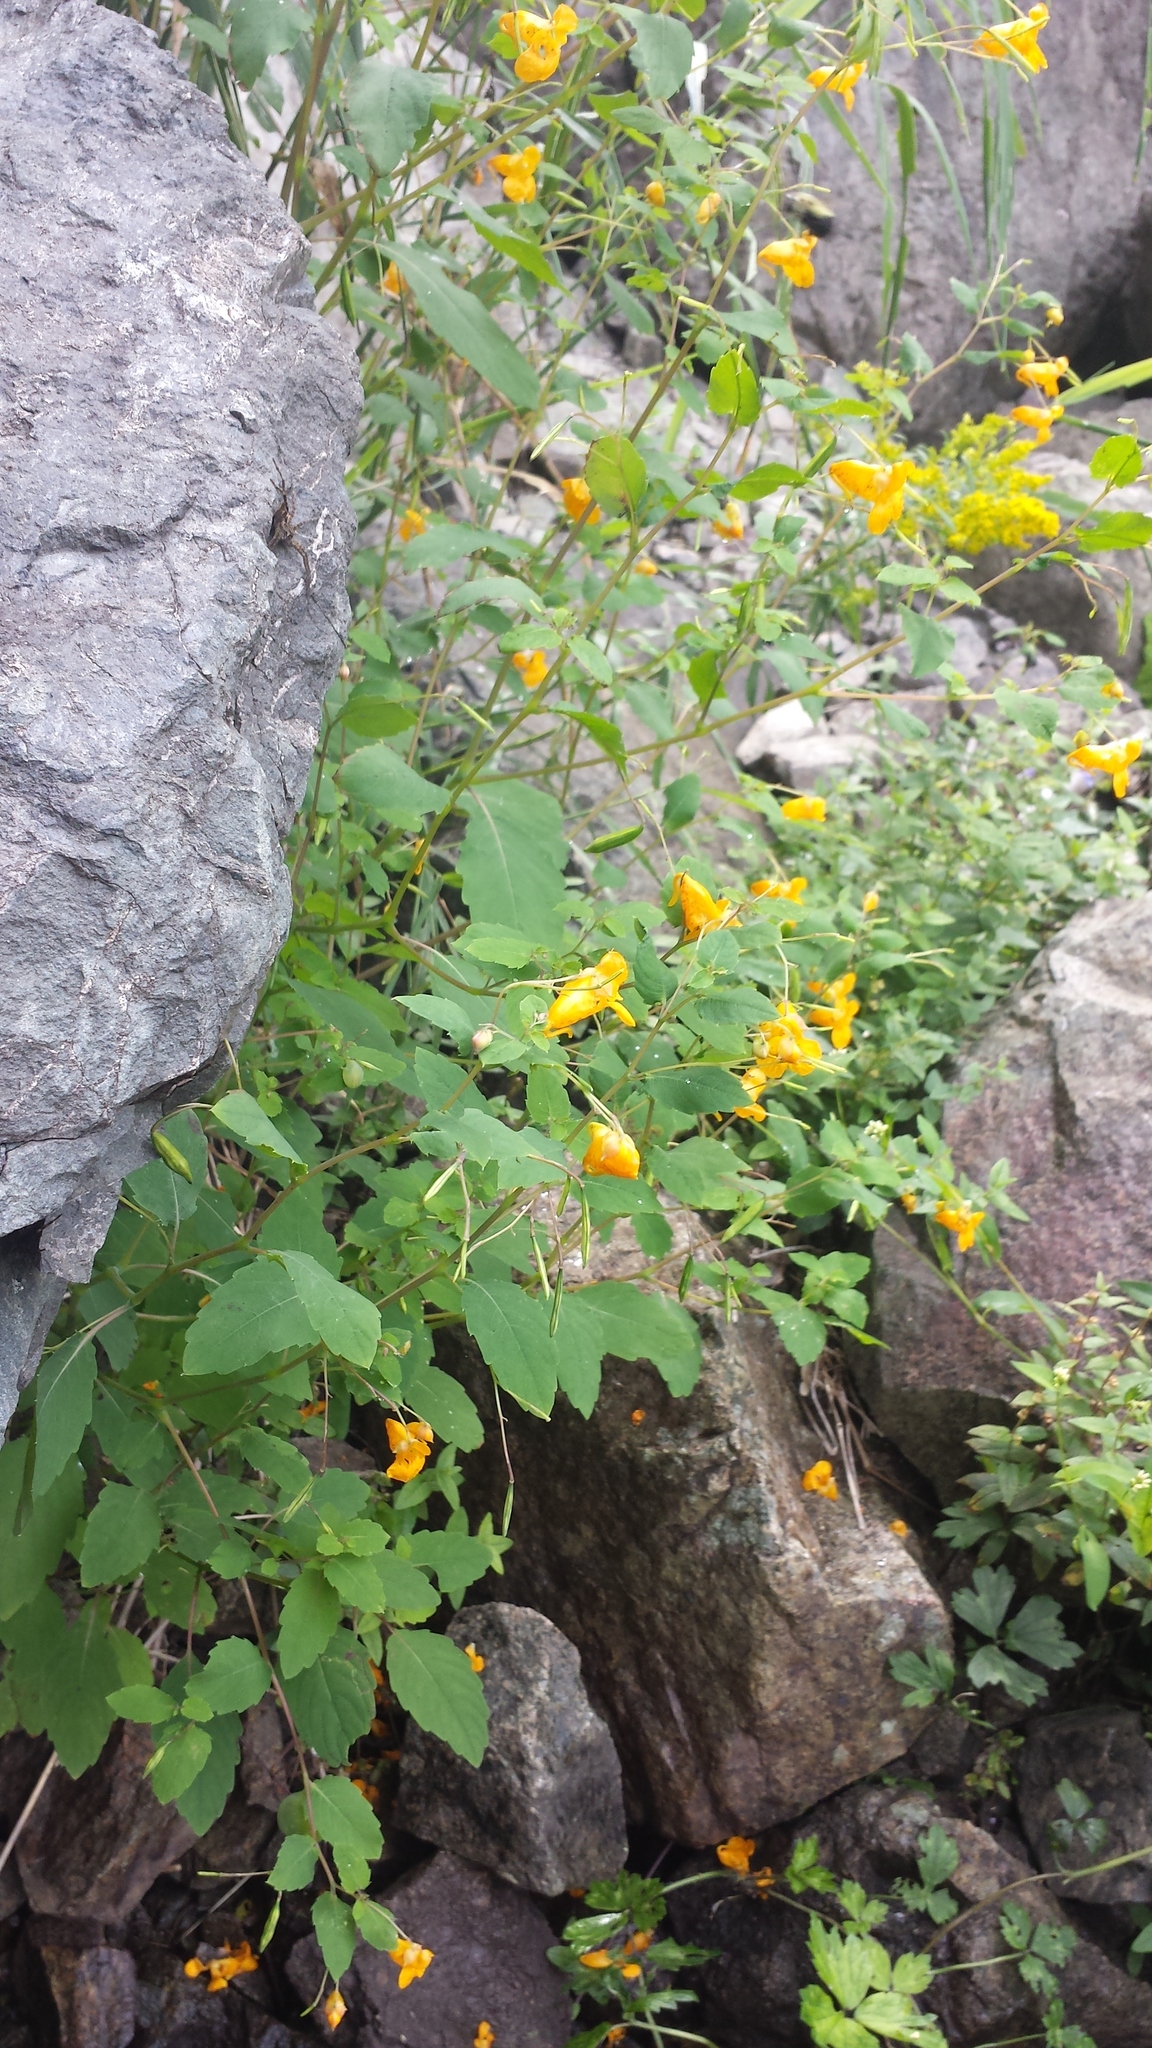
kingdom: Plantae
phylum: Tracheophyta
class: Magnoliopsida
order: Ericales
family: Balsaminaceae
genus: Impatiens
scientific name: Impatiens capensis
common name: Orange balsam
